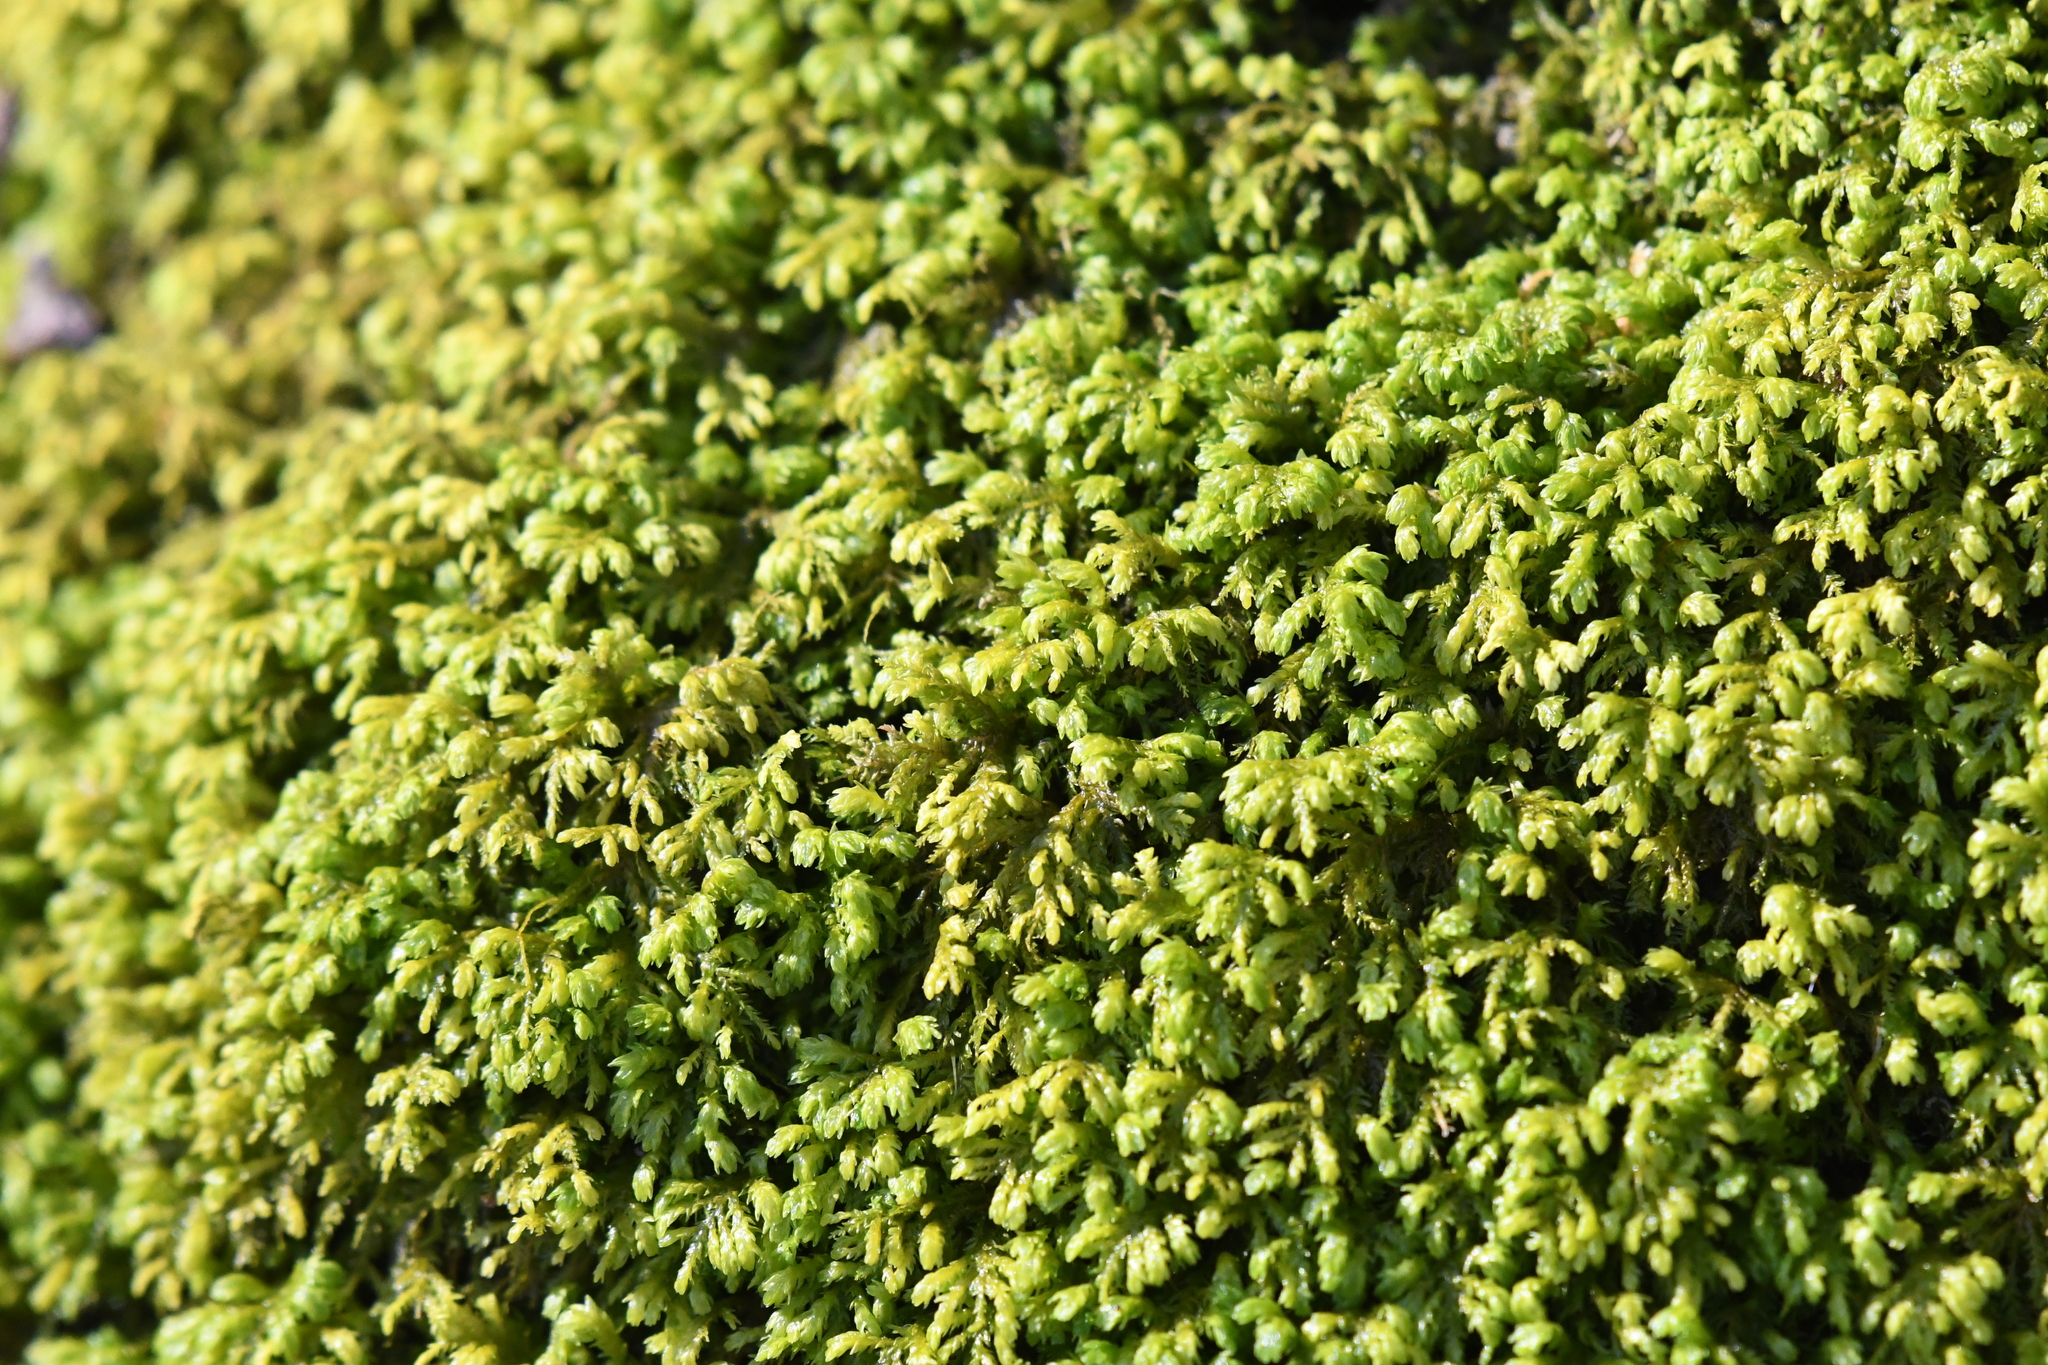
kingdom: Plantae
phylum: Bryophyta
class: Bryopsida
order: Hypnales
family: Neckeraceae
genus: Pseudanomodon
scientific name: Pseudanomodon attenuatus
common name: Tree-skirt moss
